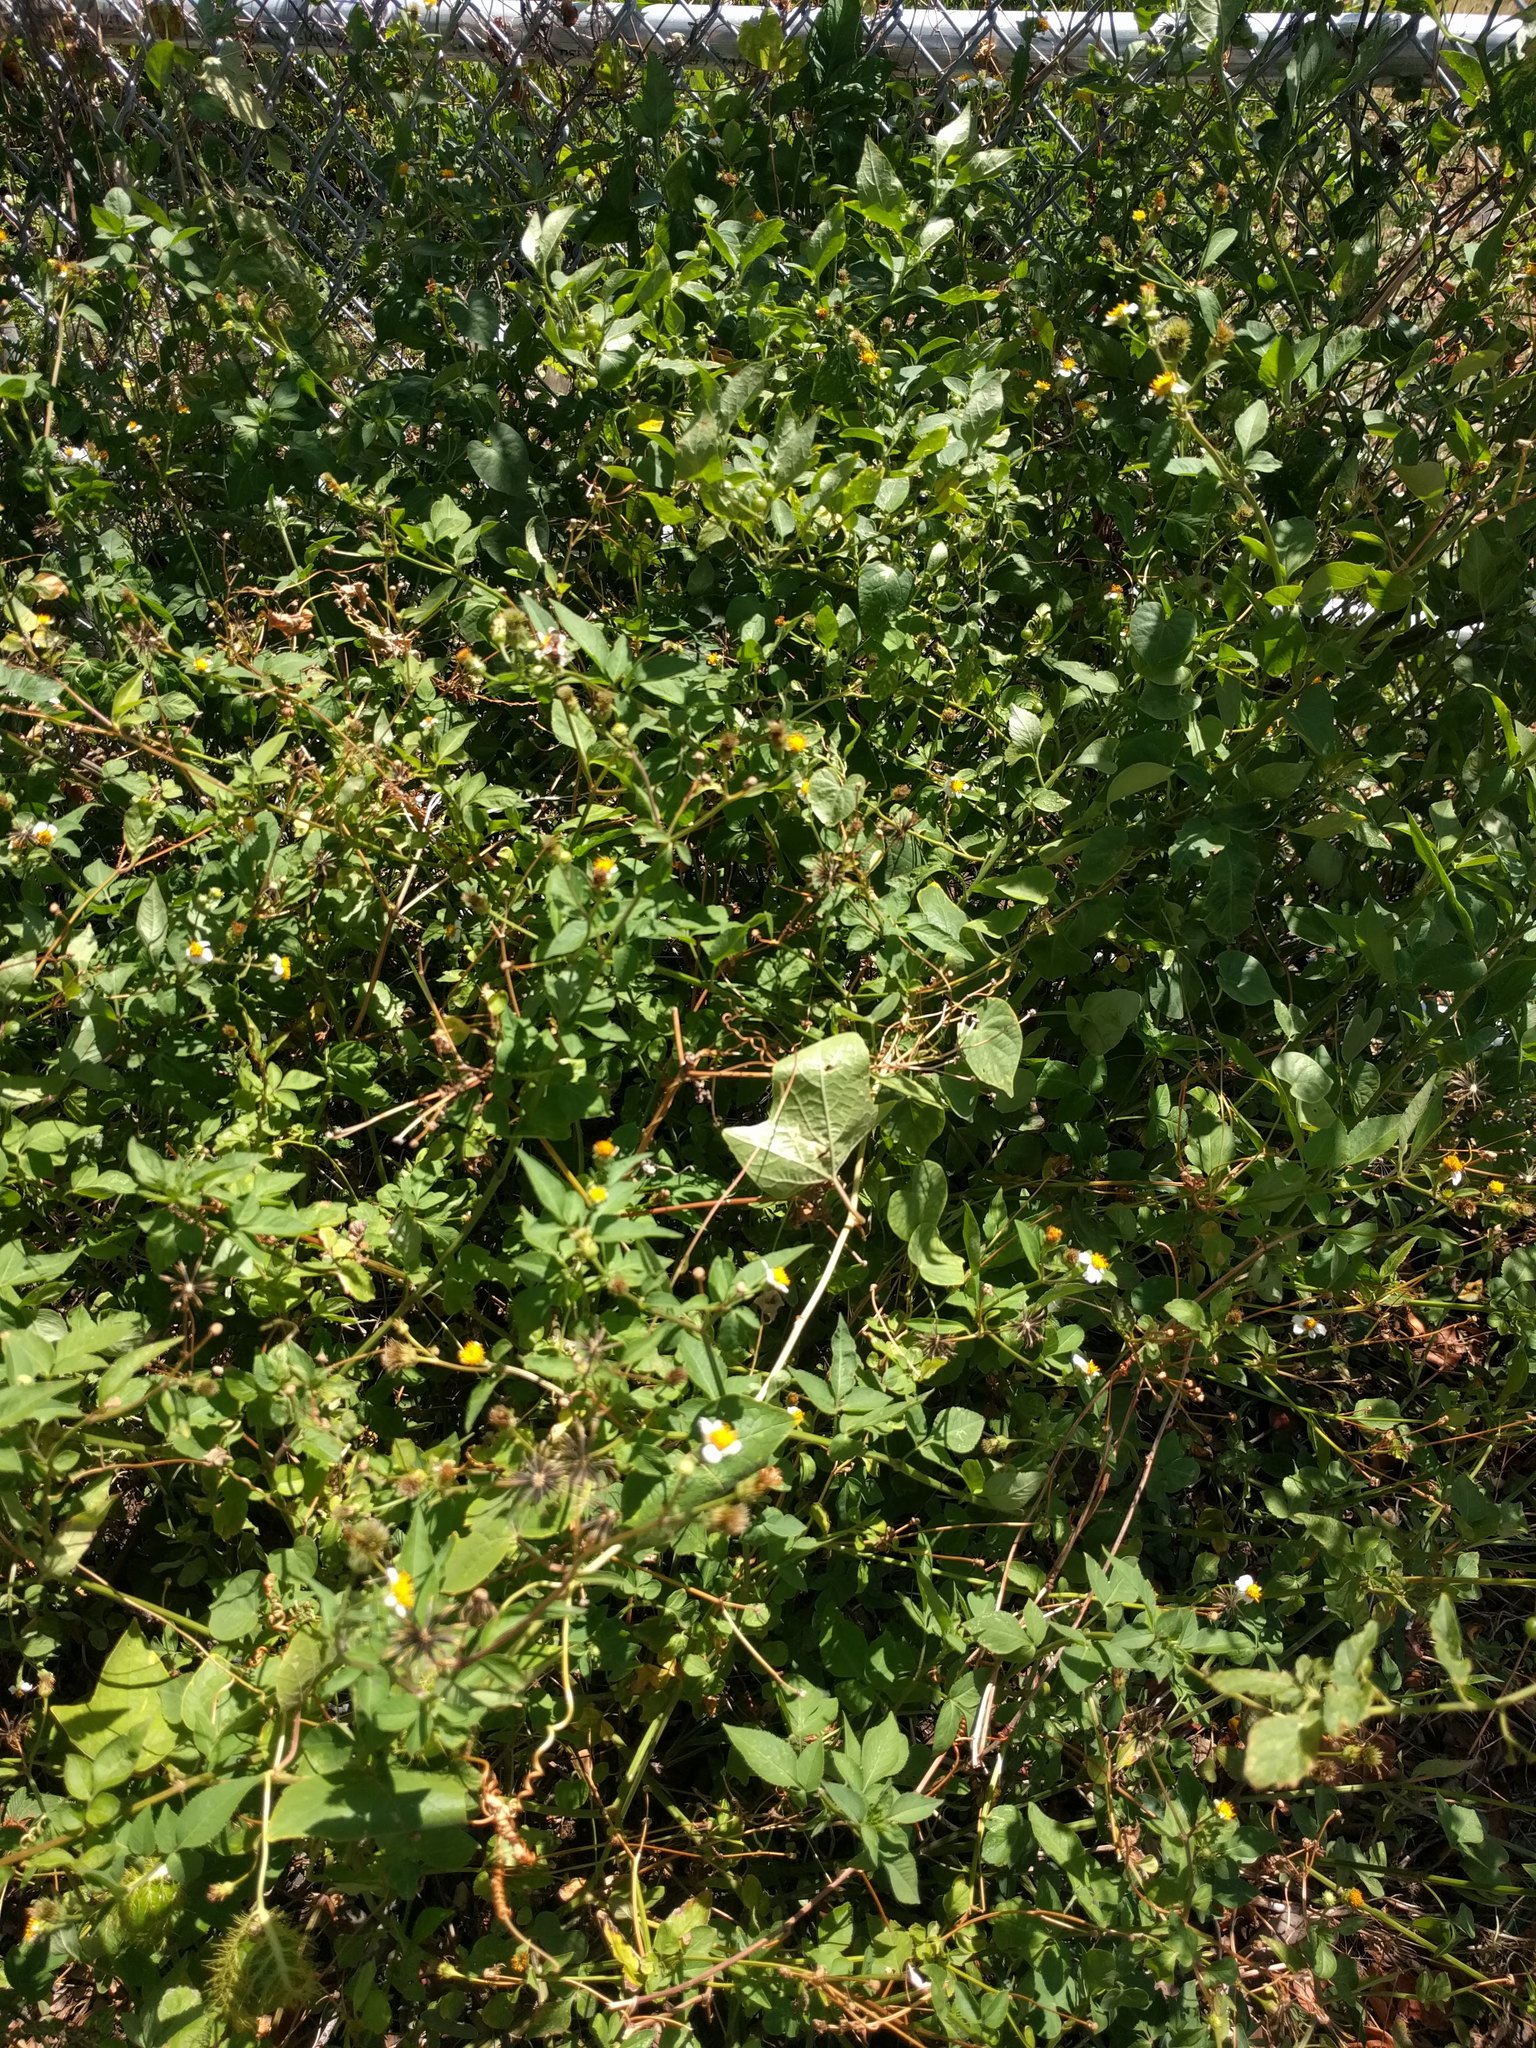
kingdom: Plantae
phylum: Tracheophyta
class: Magnoliopsida
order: Asterales
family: Asteraceae
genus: Bidens
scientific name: Bidens alba
